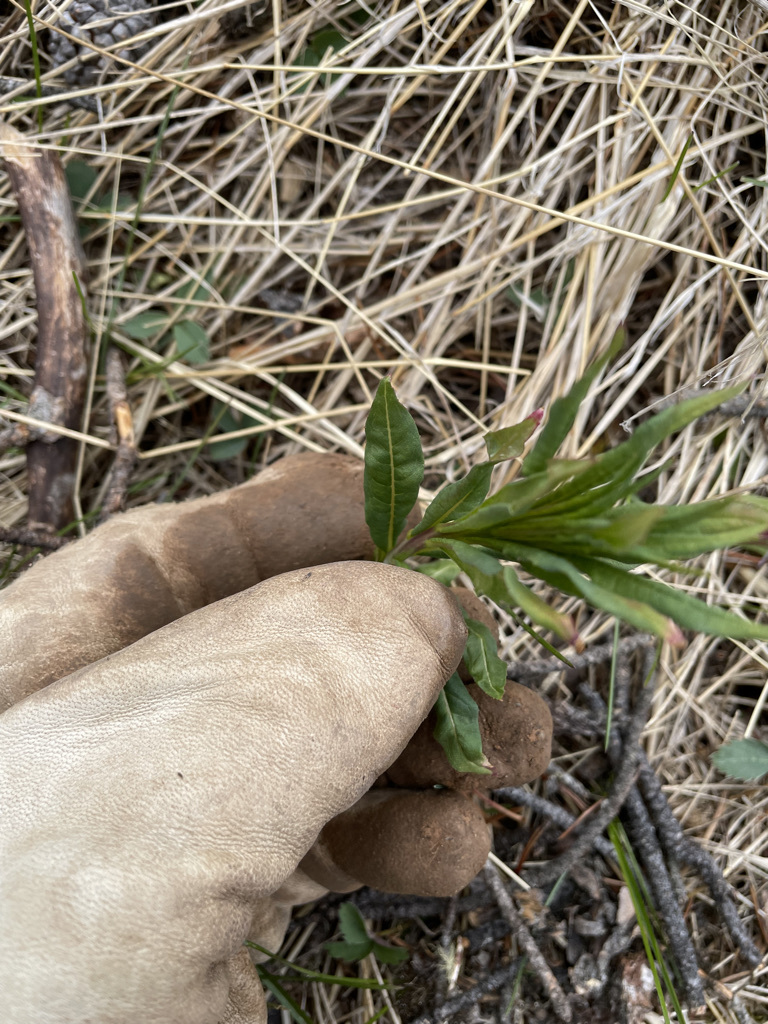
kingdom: Plantae
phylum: Tracheophyta
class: Magnoliopsida
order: Myrtales
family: Onagraceae
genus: Chamaenerion
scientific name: Chamaenerion angustifolium
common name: Fireweed
